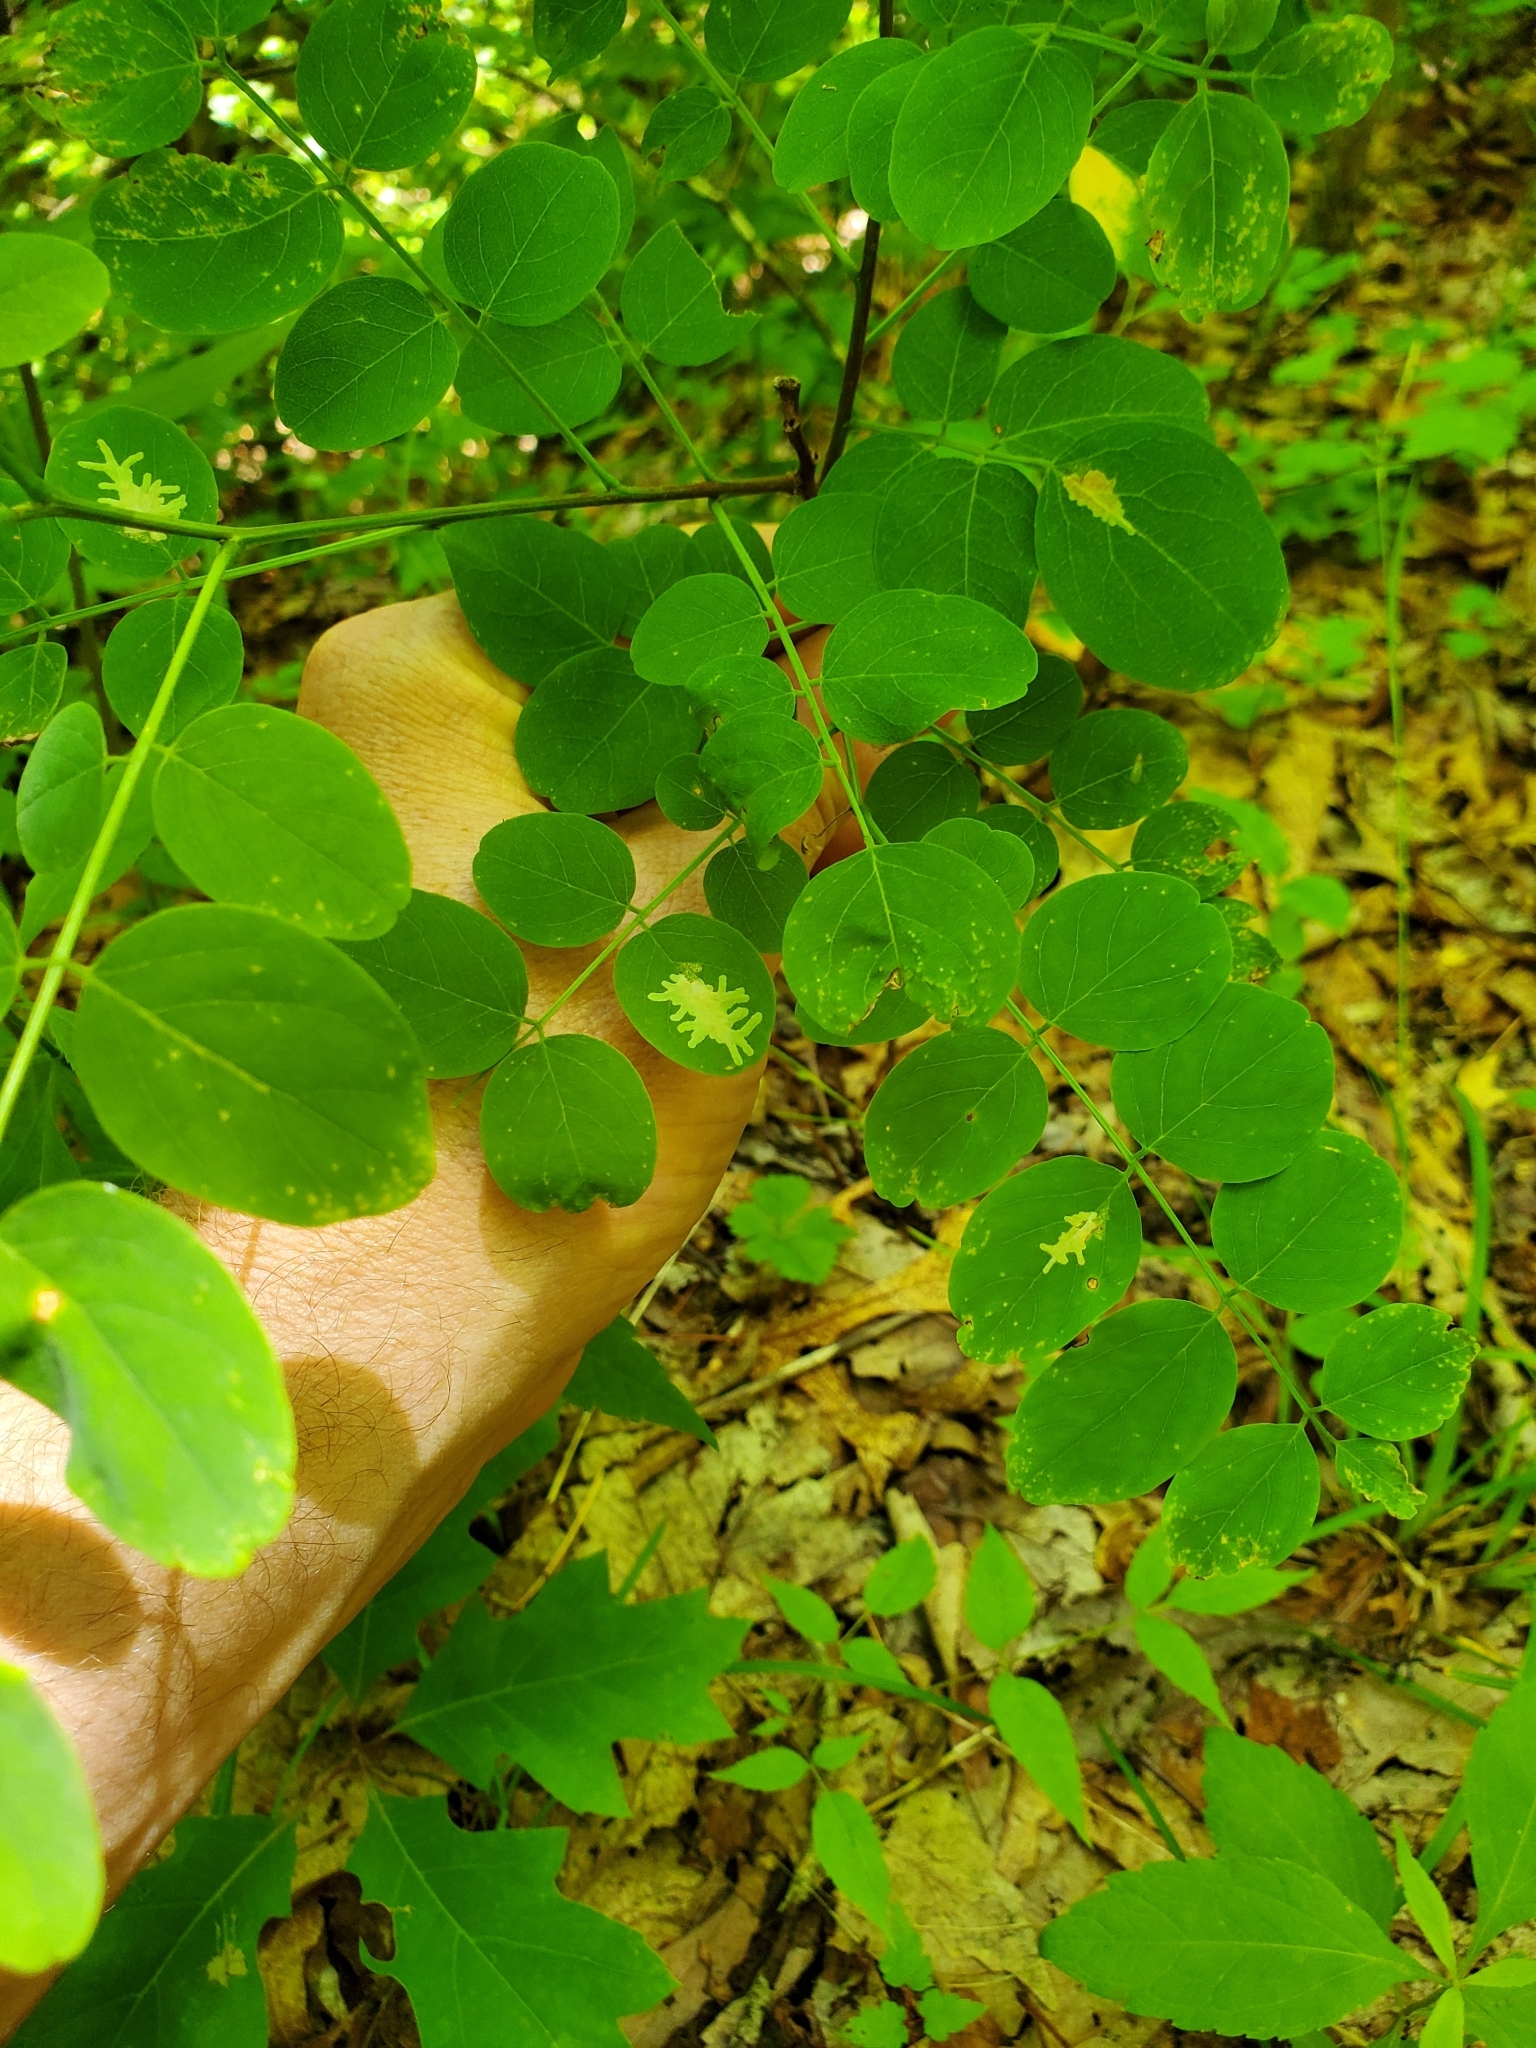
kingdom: Animalia
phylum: Arthropoda
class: Insecta
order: Lepidoptera
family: Gracillariidae
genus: Parectopa
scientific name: Parectopa robiniella
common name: Locust digitate leafminer
